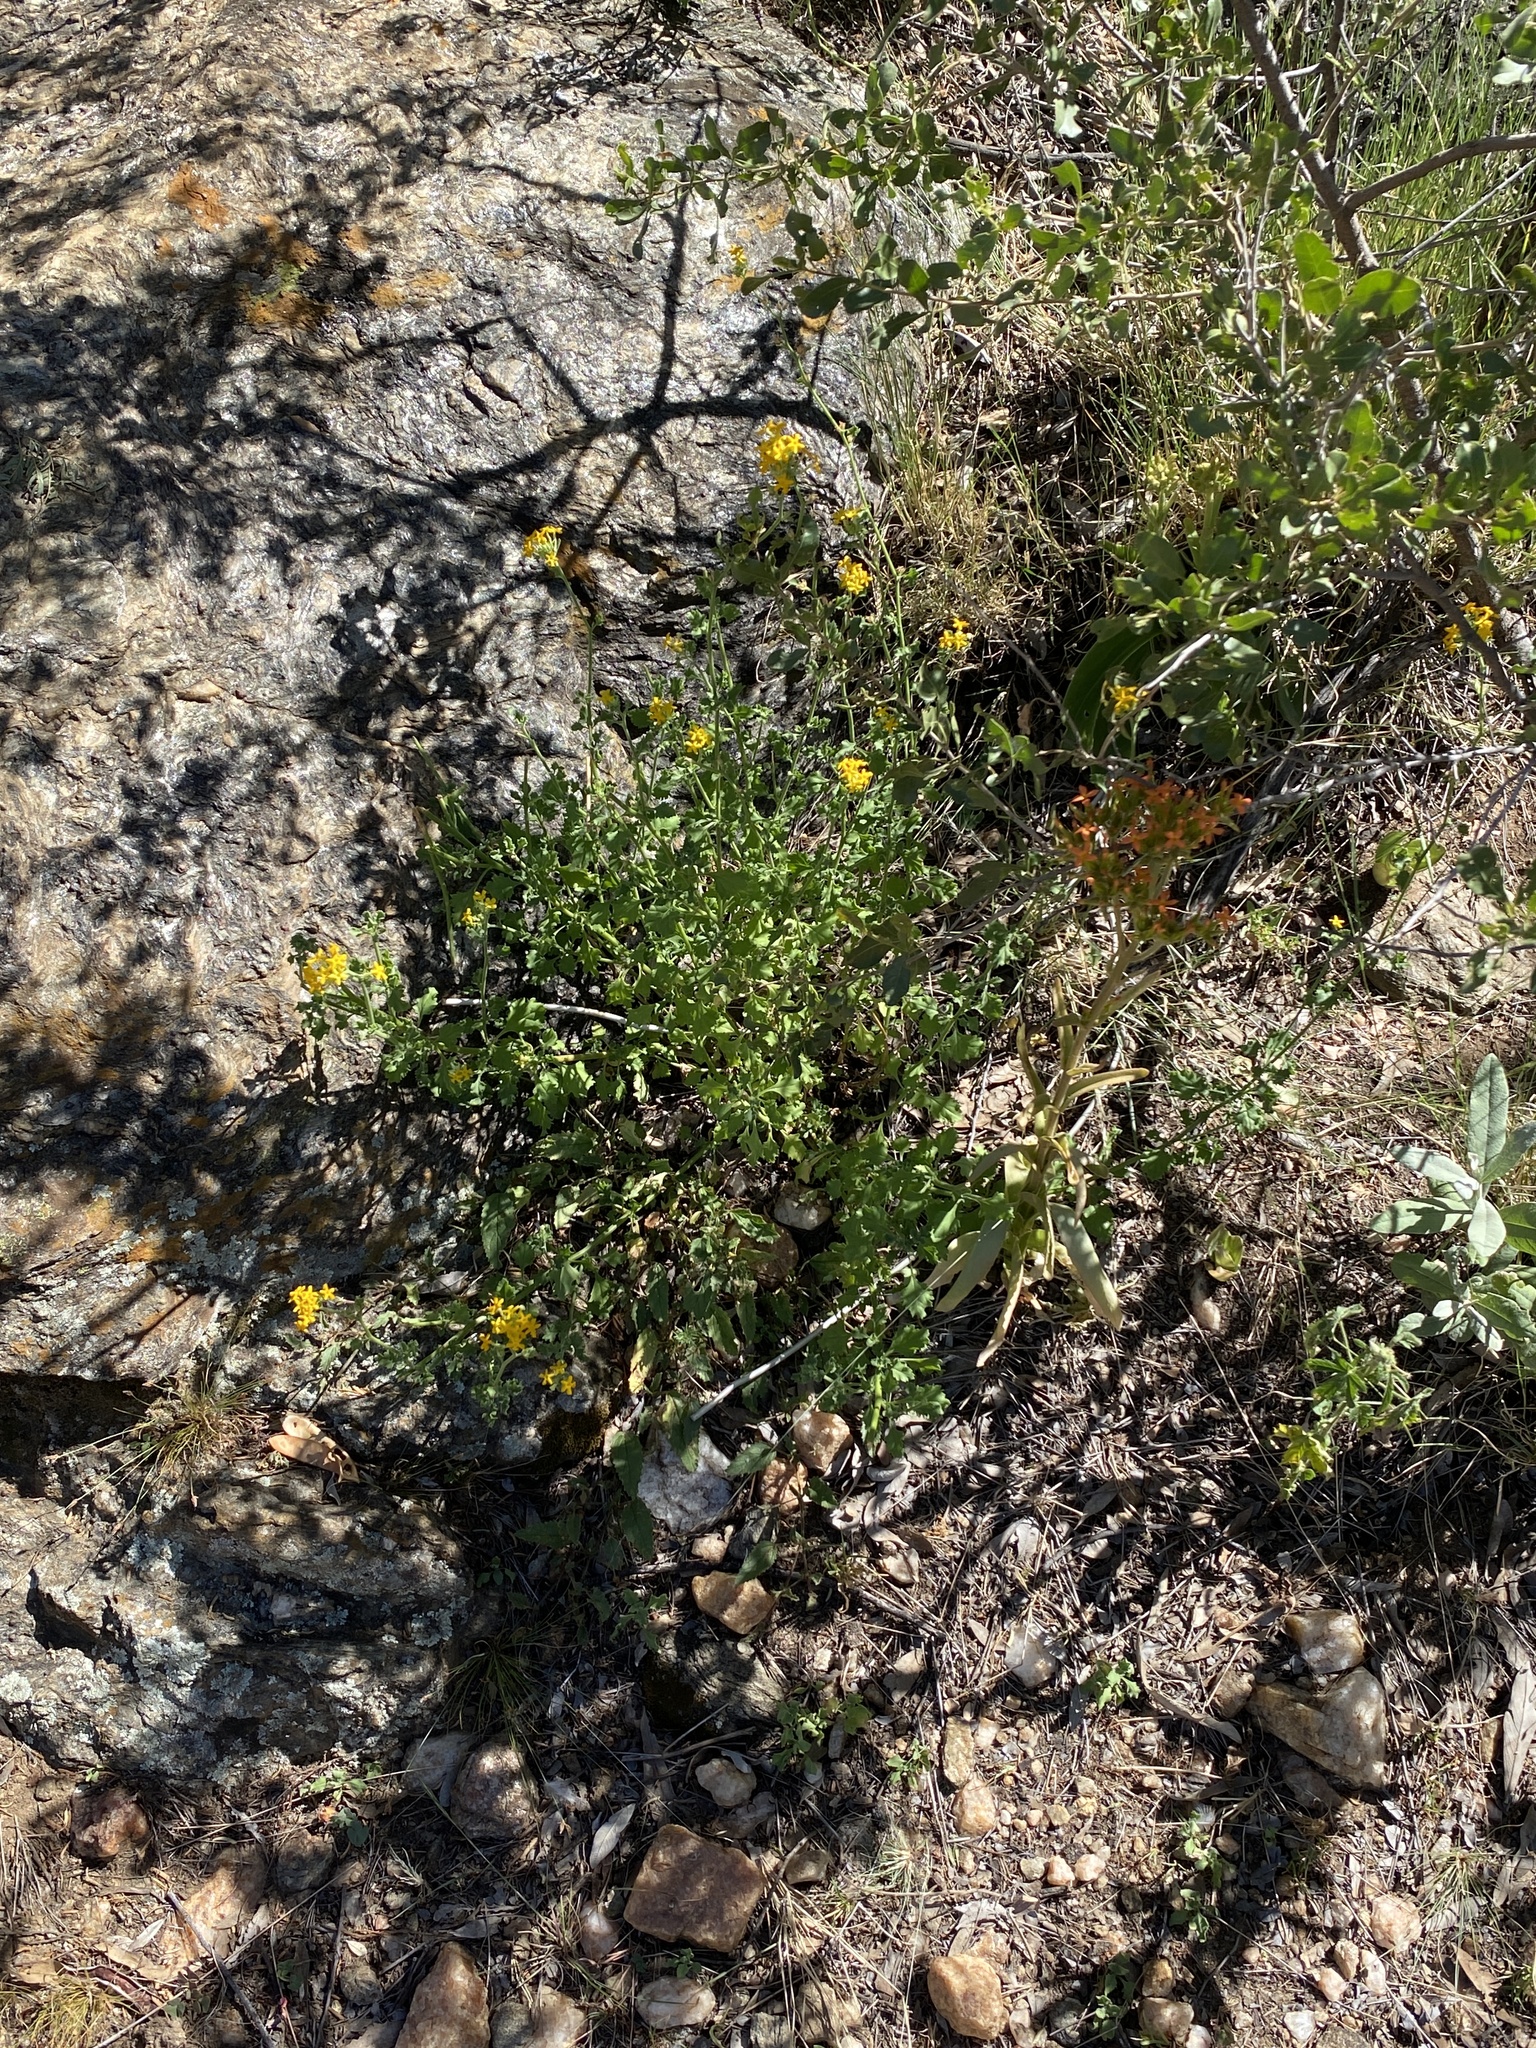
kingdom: Plantae
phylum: Tracheophyta
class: Magnoliopsida
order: Lamiales
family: Scrophulariaceae
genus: Manulea
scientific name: Manulea dubia
